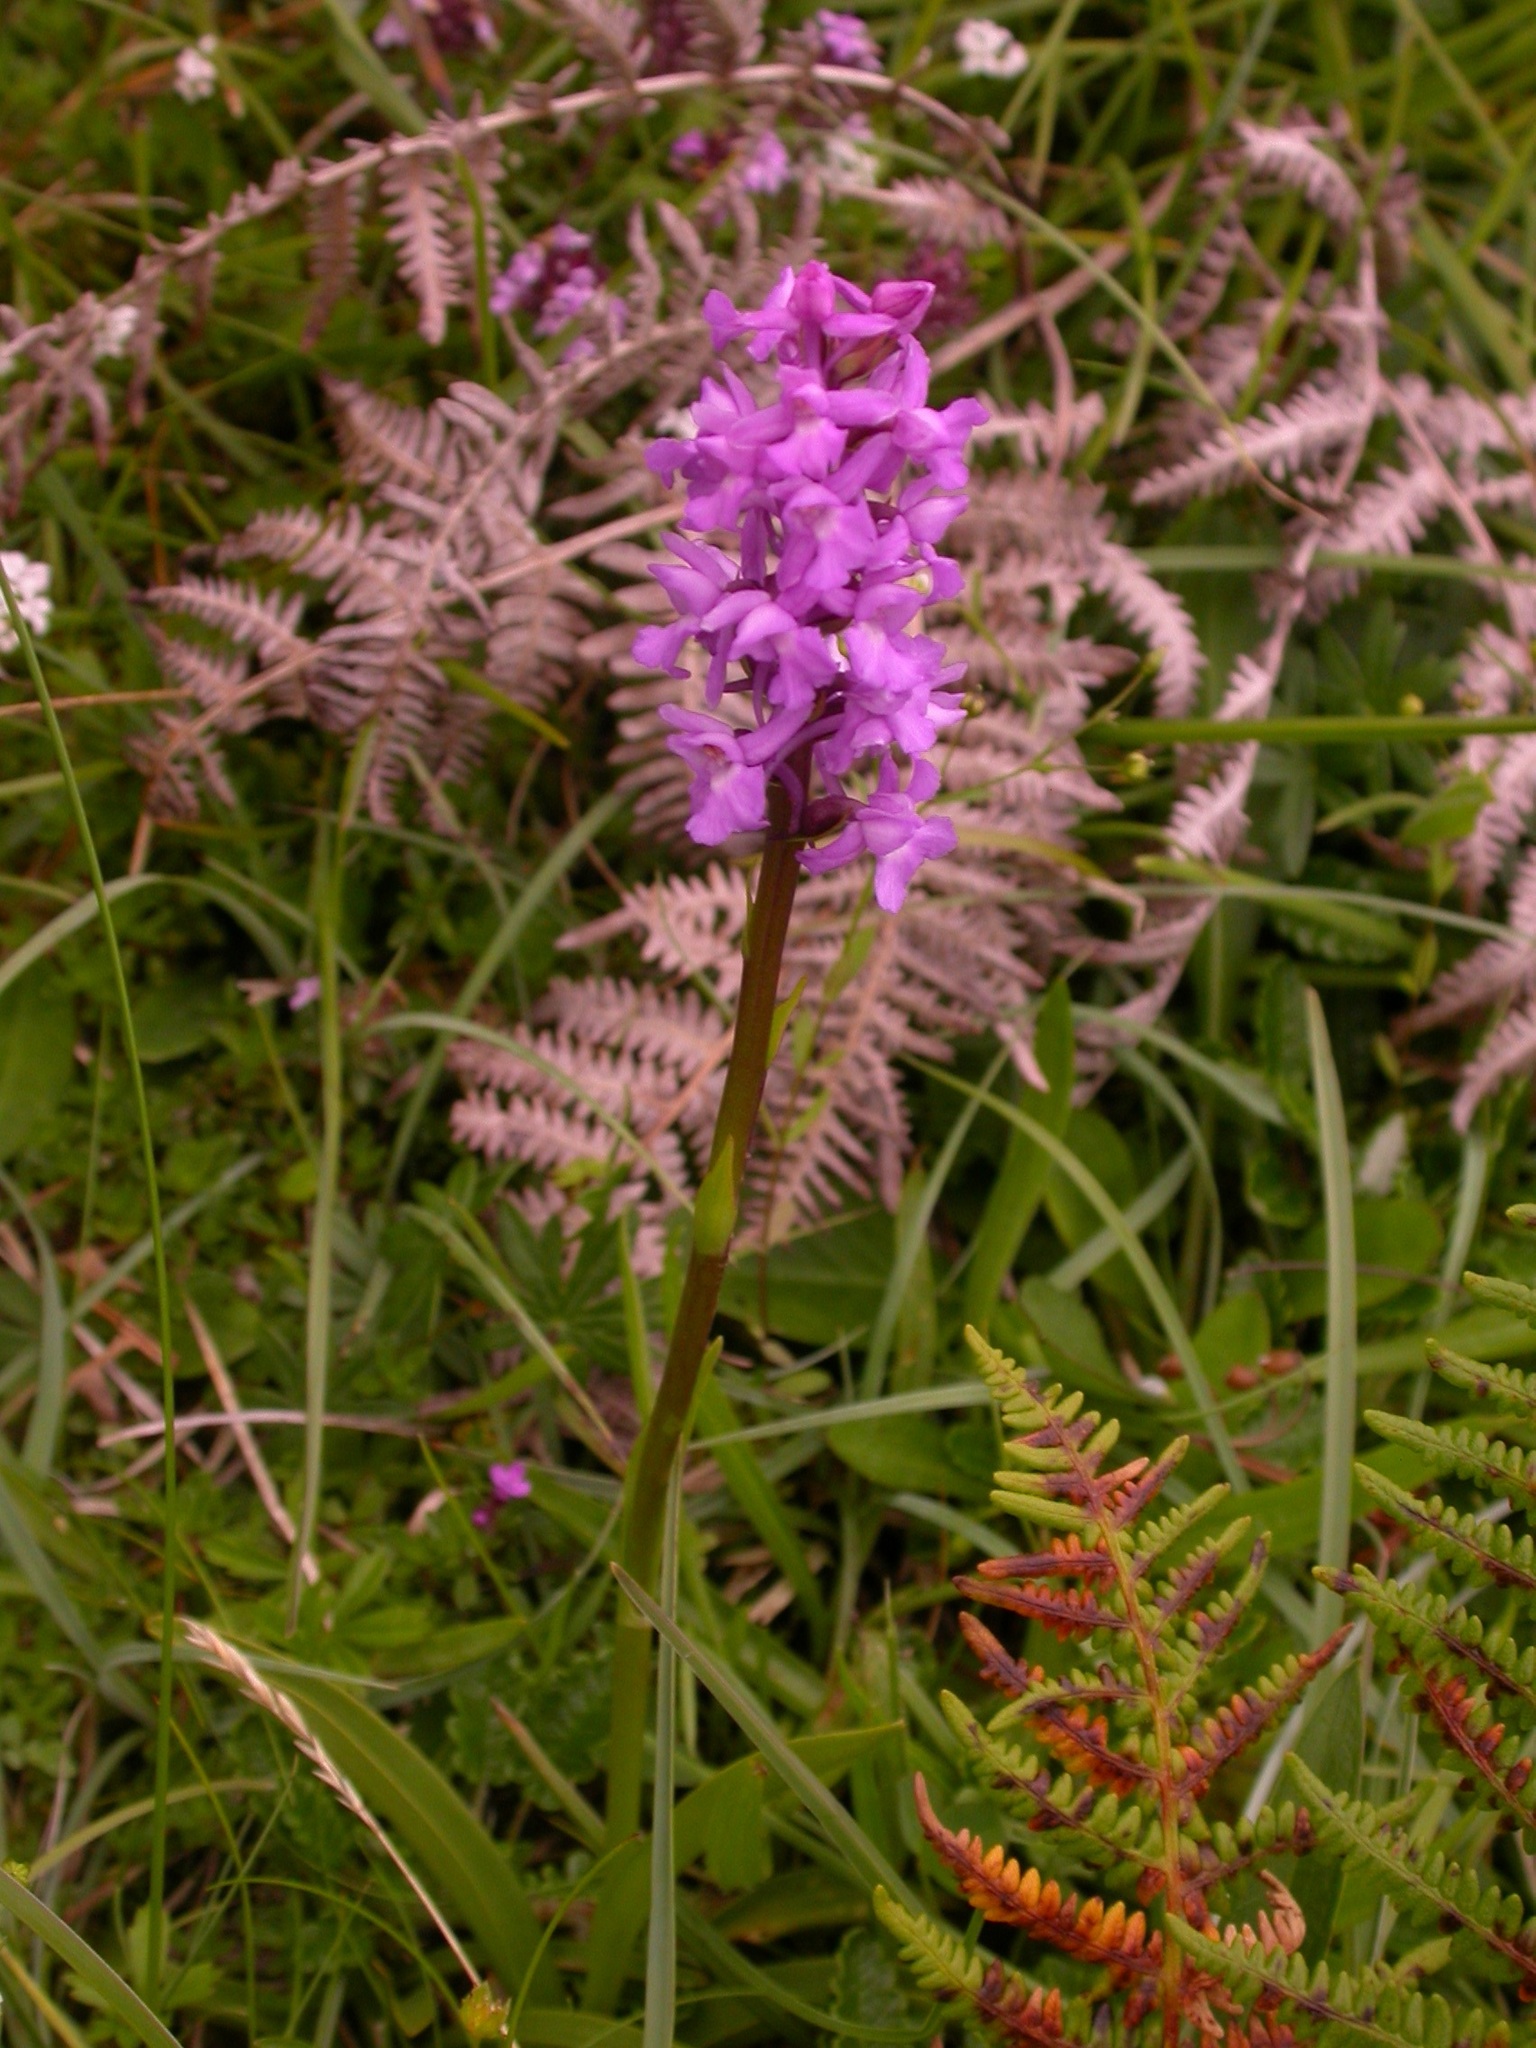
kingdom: Plantae
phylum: Tracheophyta
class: Liliopsida
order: Asparagales
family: Orchidaceae
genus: Gymnadenia
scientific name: Gymnadenia conopsea
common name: Fragrant orchid
